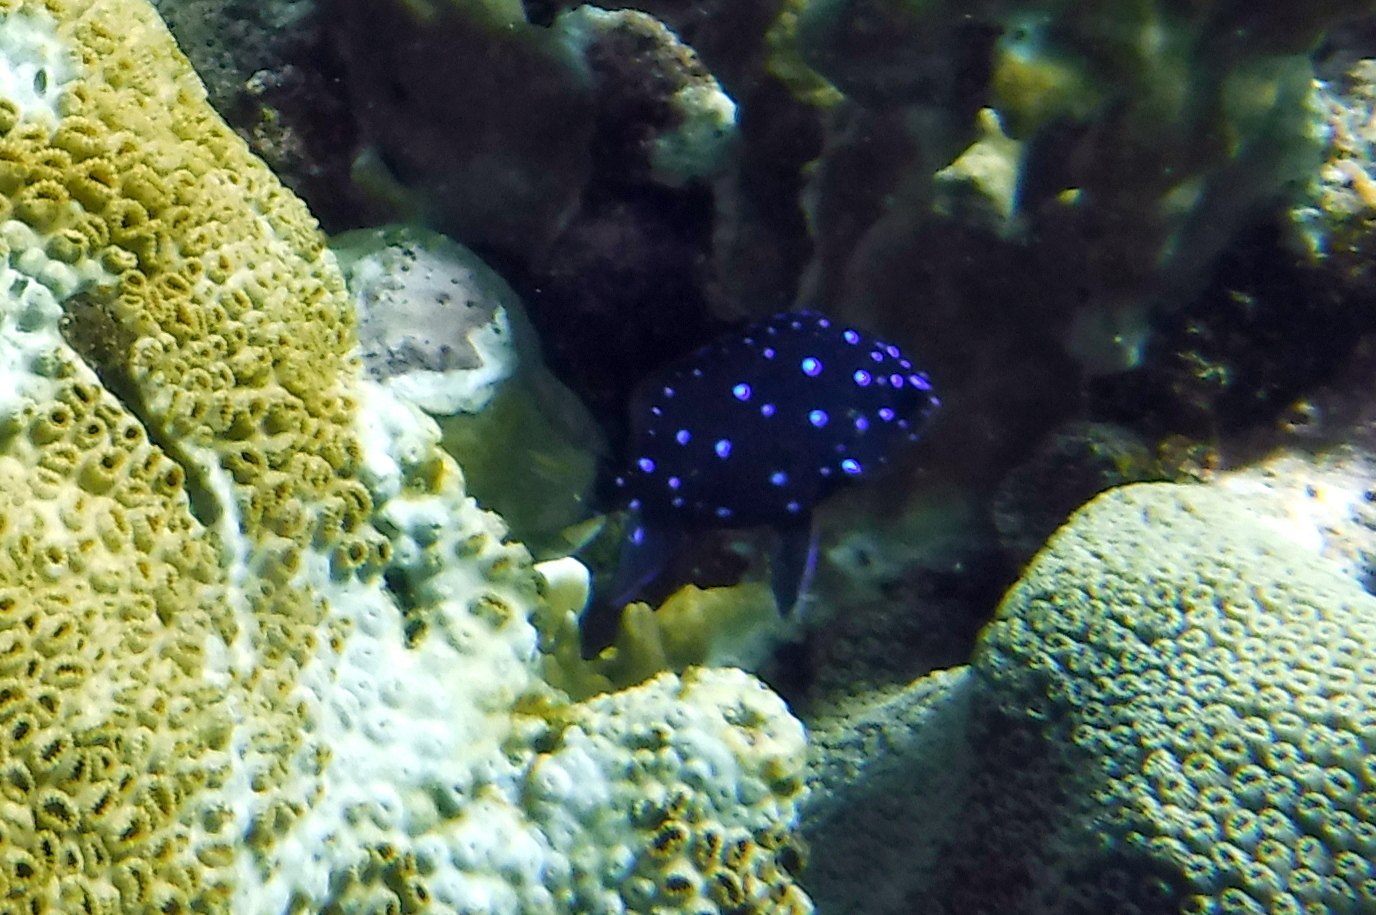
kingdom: Animalia
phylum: Chordata
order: Perciformes
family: Pomacentridae
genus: Microspathodon
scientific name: Microspathodon chrysurus
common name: Yellowtail damselfish
